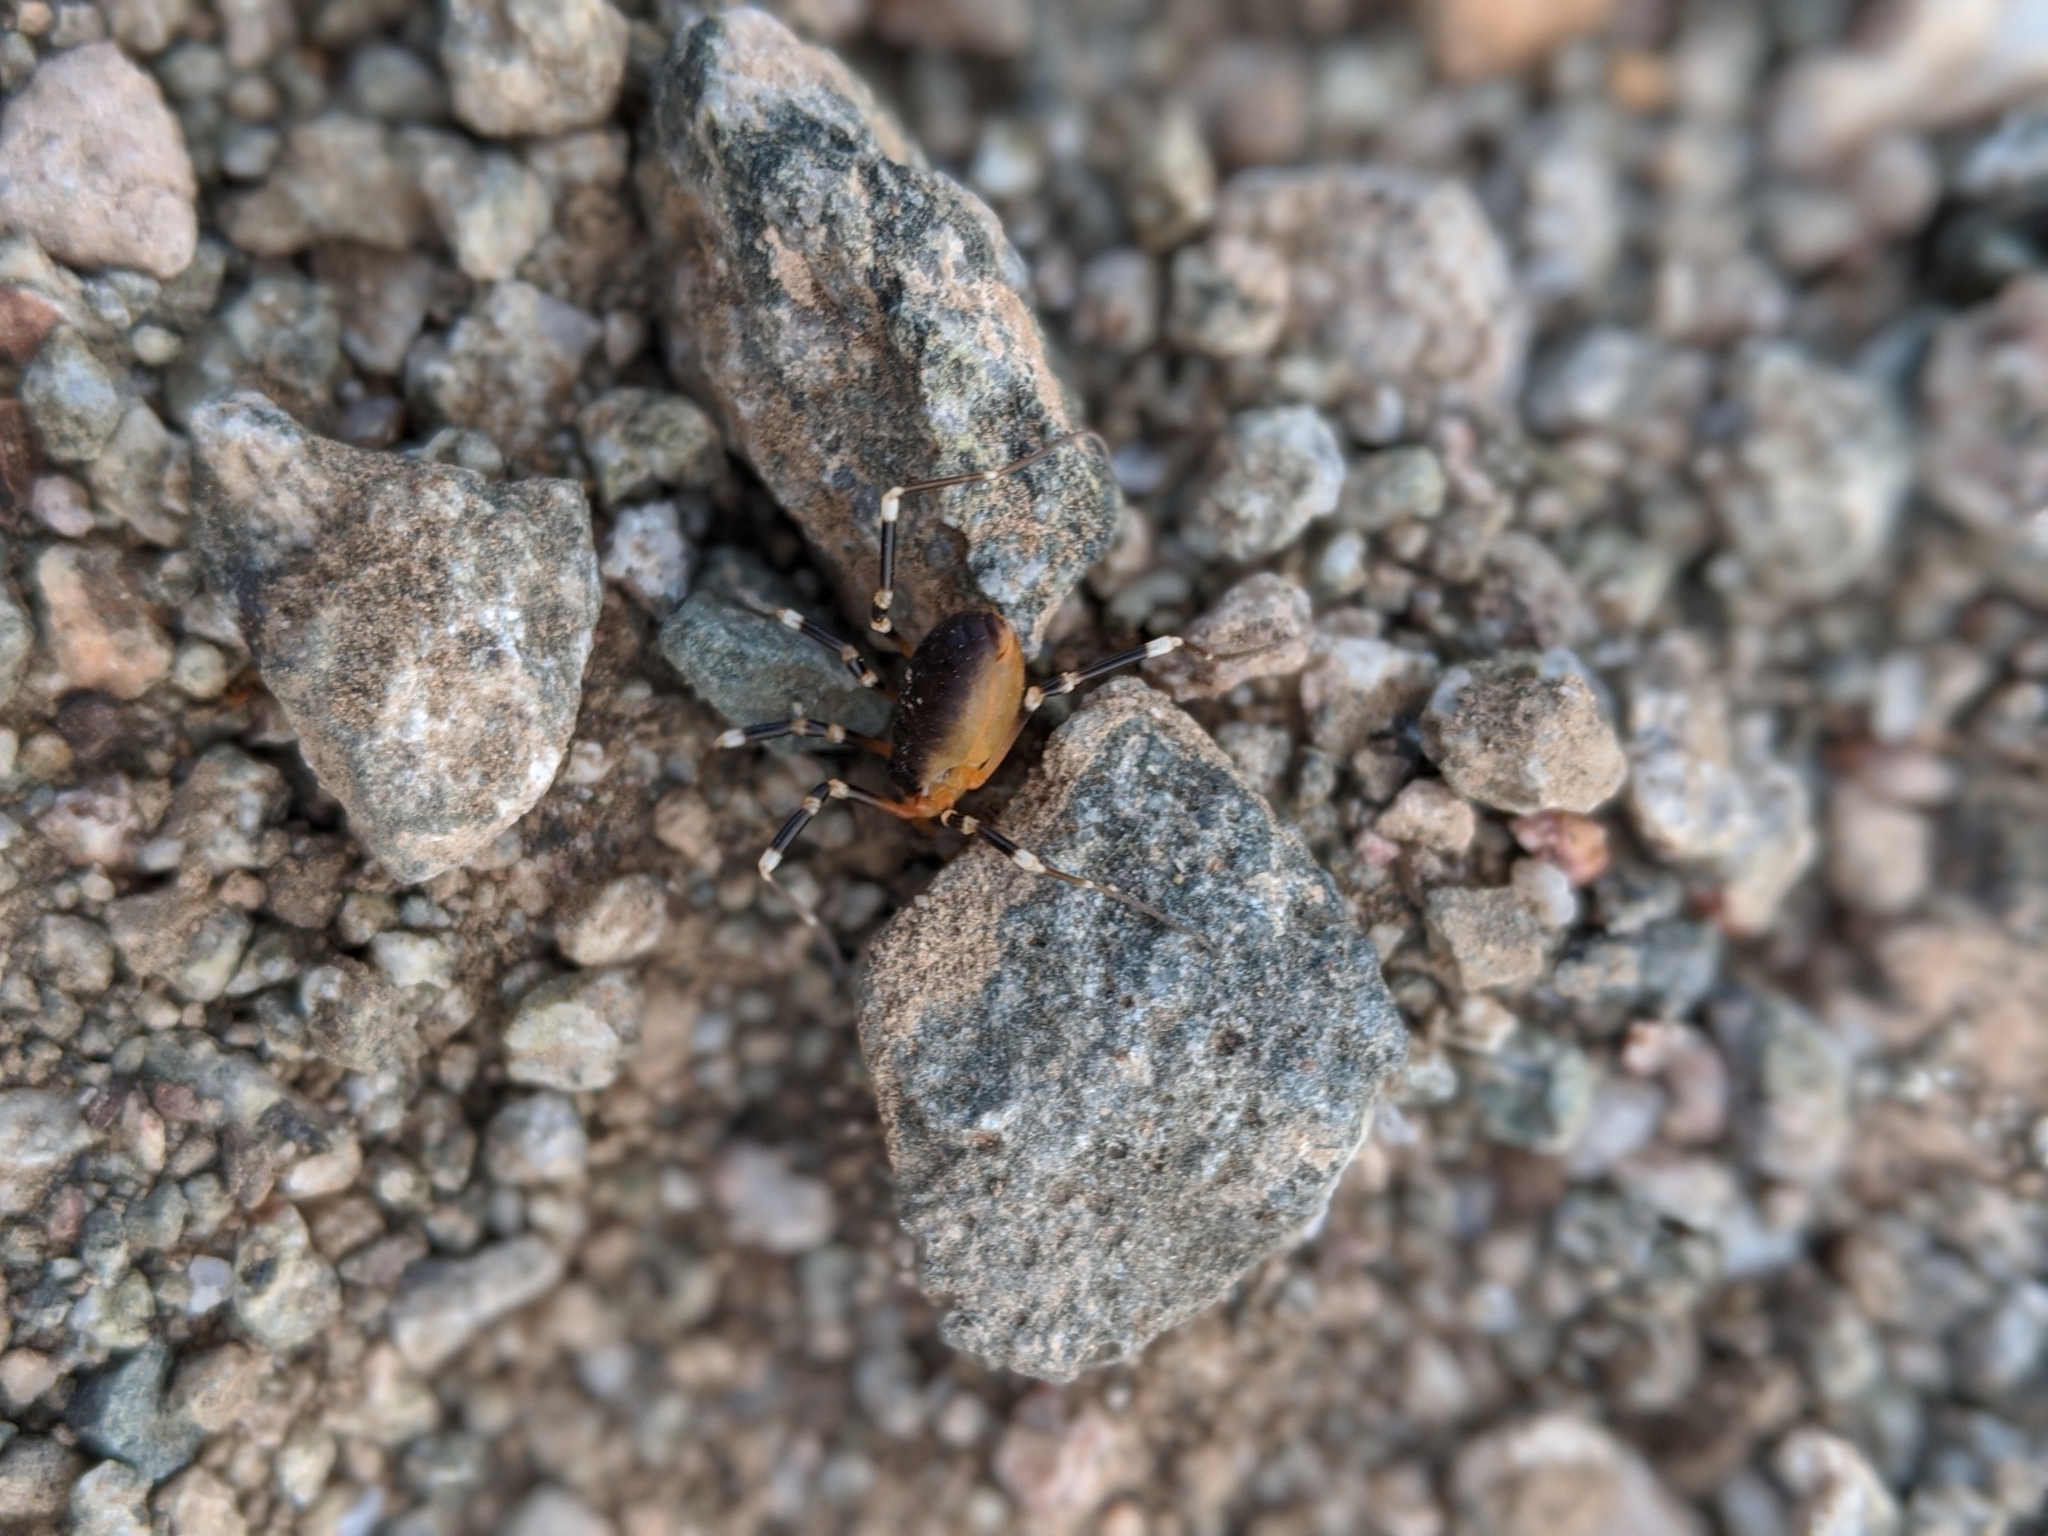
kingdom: Animalia
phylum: Arthropoda
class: Arachnida
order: Opiliones
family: Globipedidae
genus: Eurybunus
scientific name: Eurybunus
